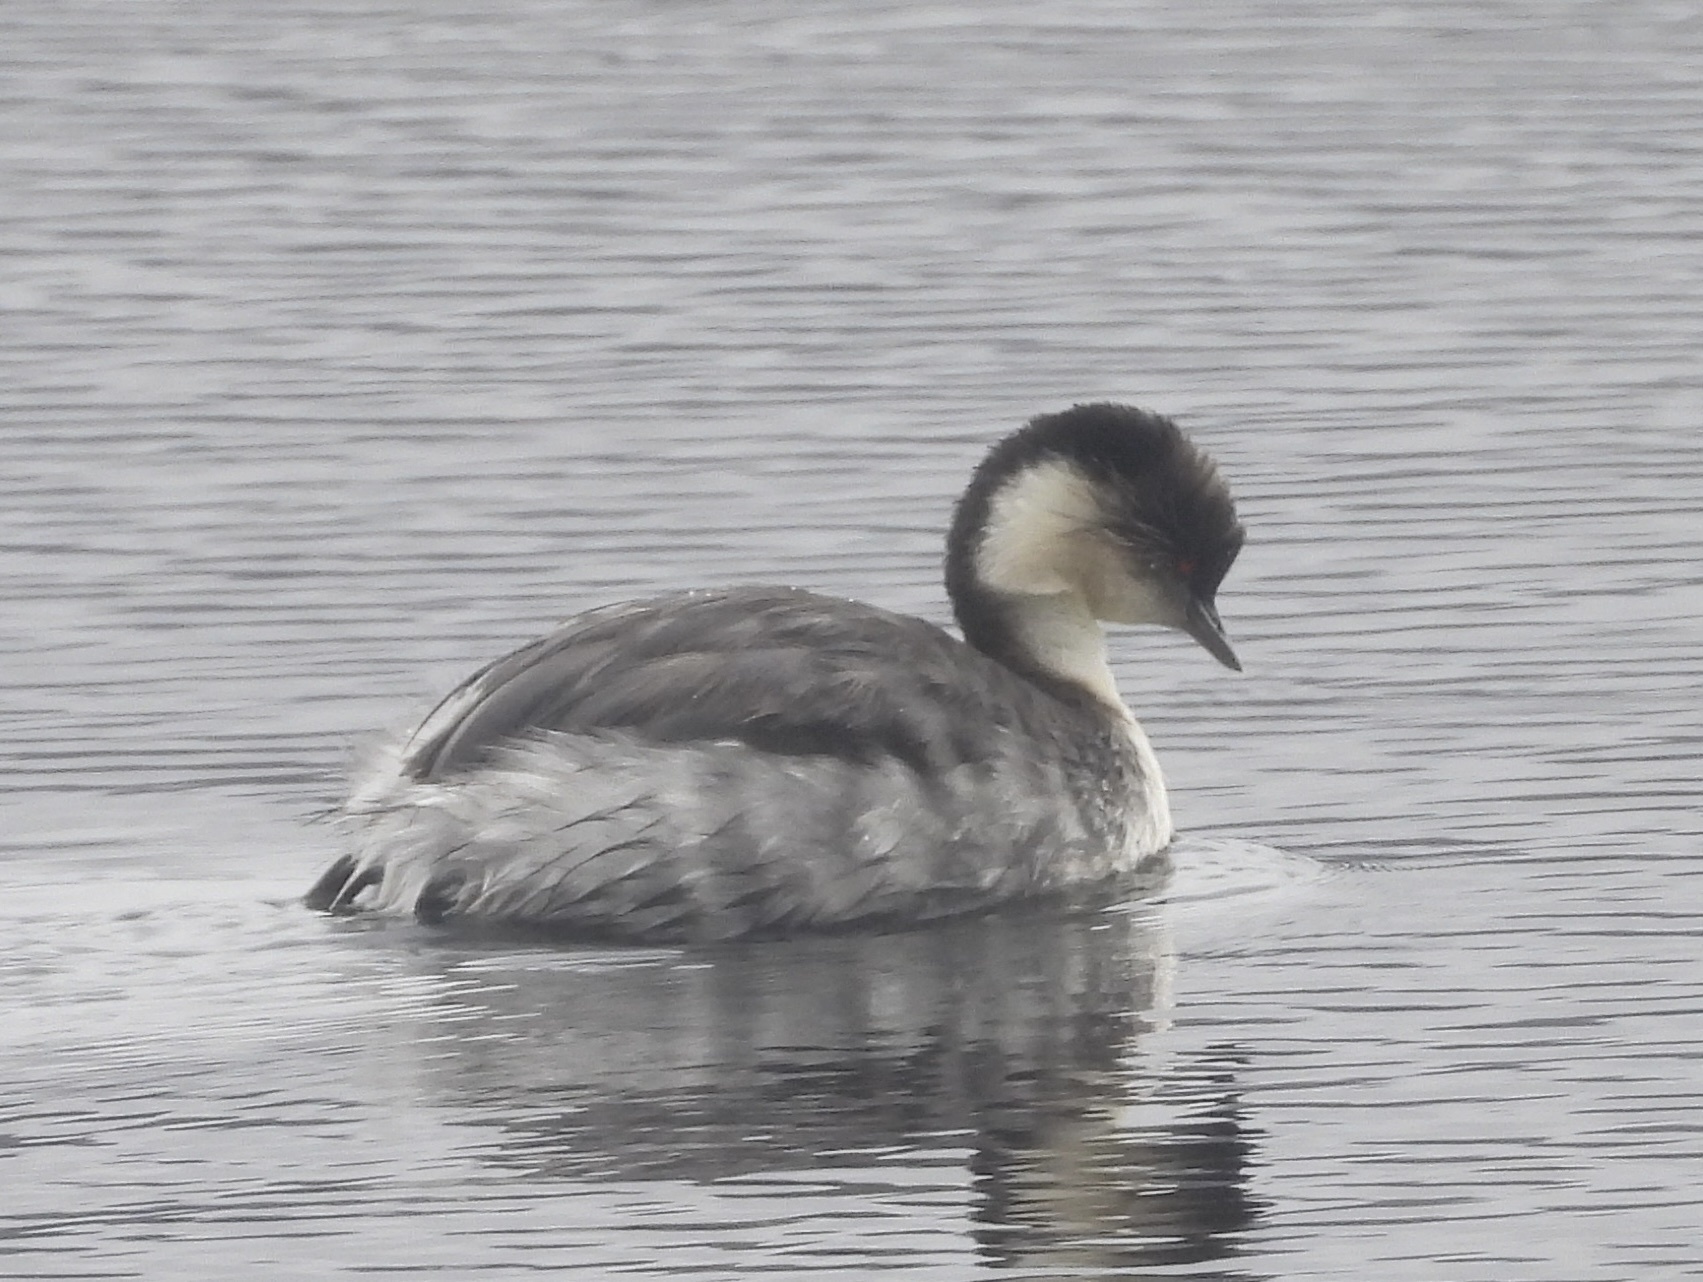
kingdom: Animalia
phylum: Chordata
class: Aves
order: Podicipediformes
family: Podicipedidae
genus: Podiceps
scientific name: Podiceps occipitalis
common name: Silvery grebe
